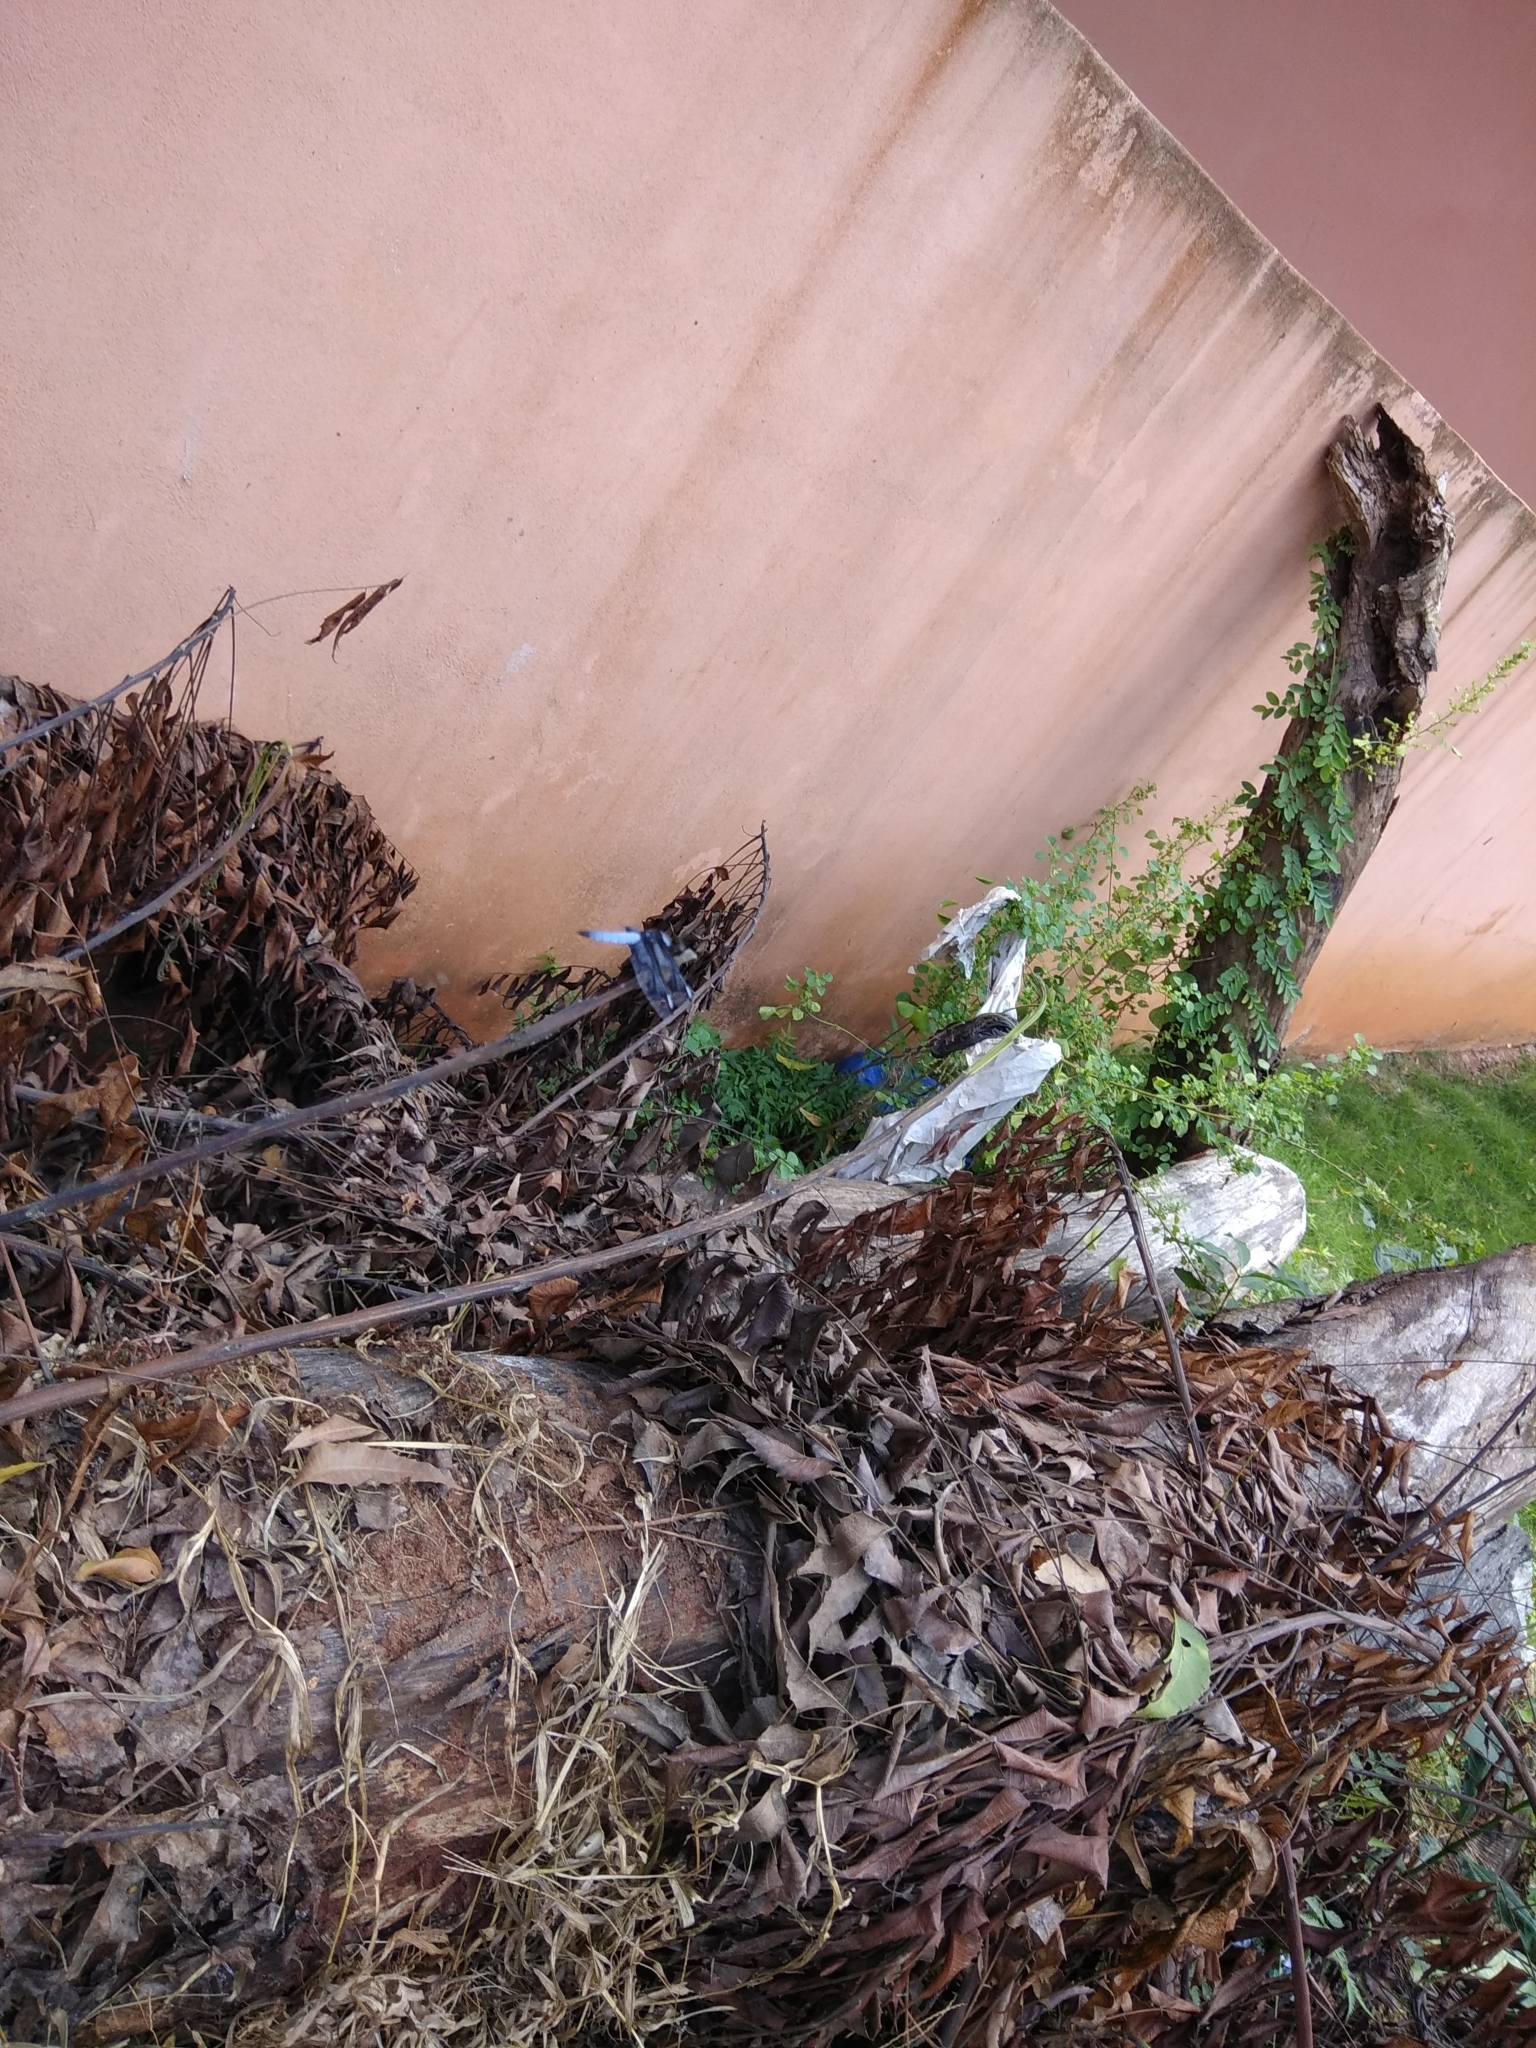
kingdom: Animalia
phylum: Arthropoda
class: Insecta
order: Odonata
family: Libellulidae
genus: Palpopleura
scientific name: Palpopleura portia
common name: Portia widow
